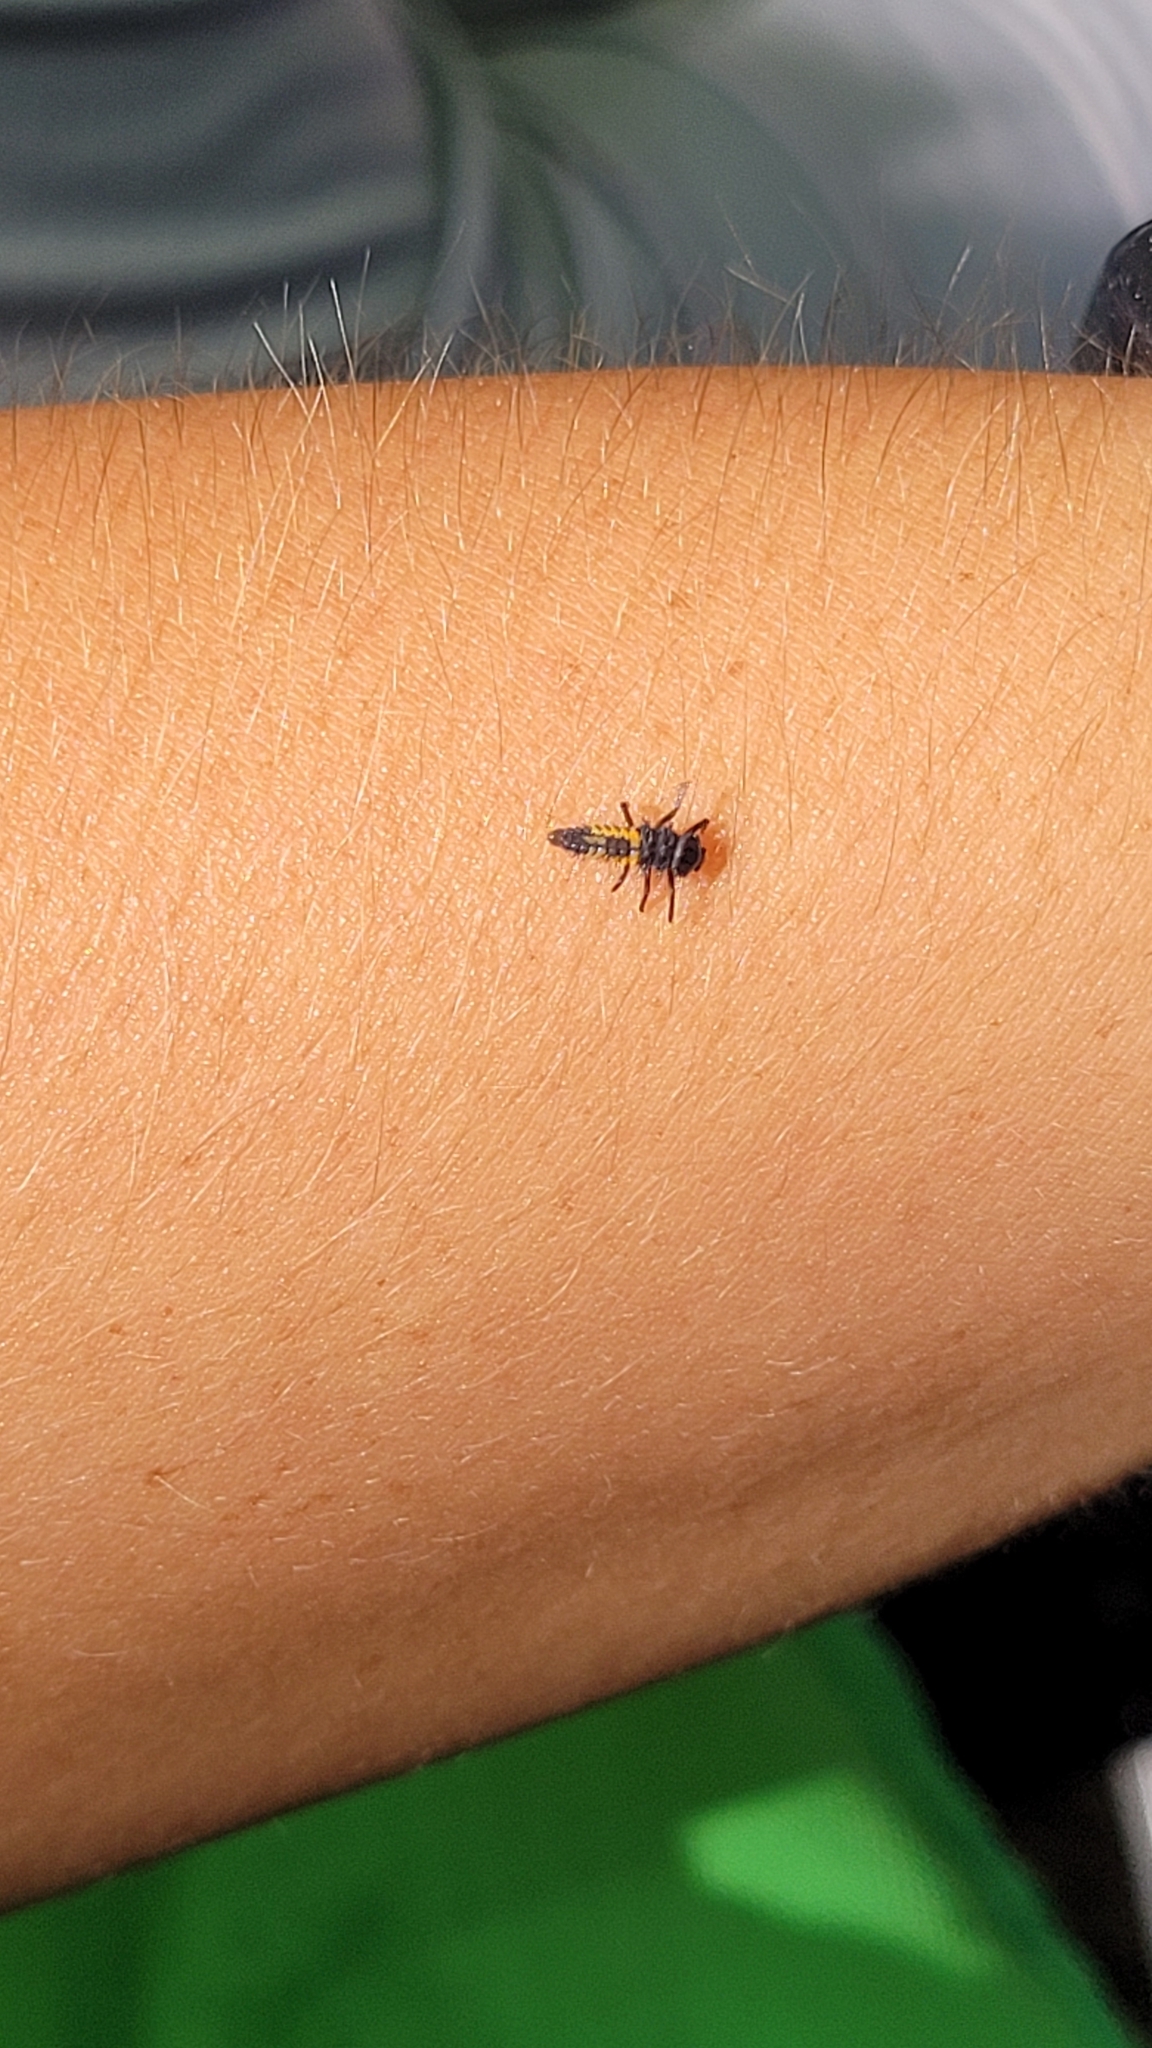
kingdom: Animalia
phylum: Arthropoda
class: Insecta
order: Coleoptera
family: Coccinellidae
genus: Harmonia
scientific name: Harmonia axyridis
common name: Harlequin ladybird
